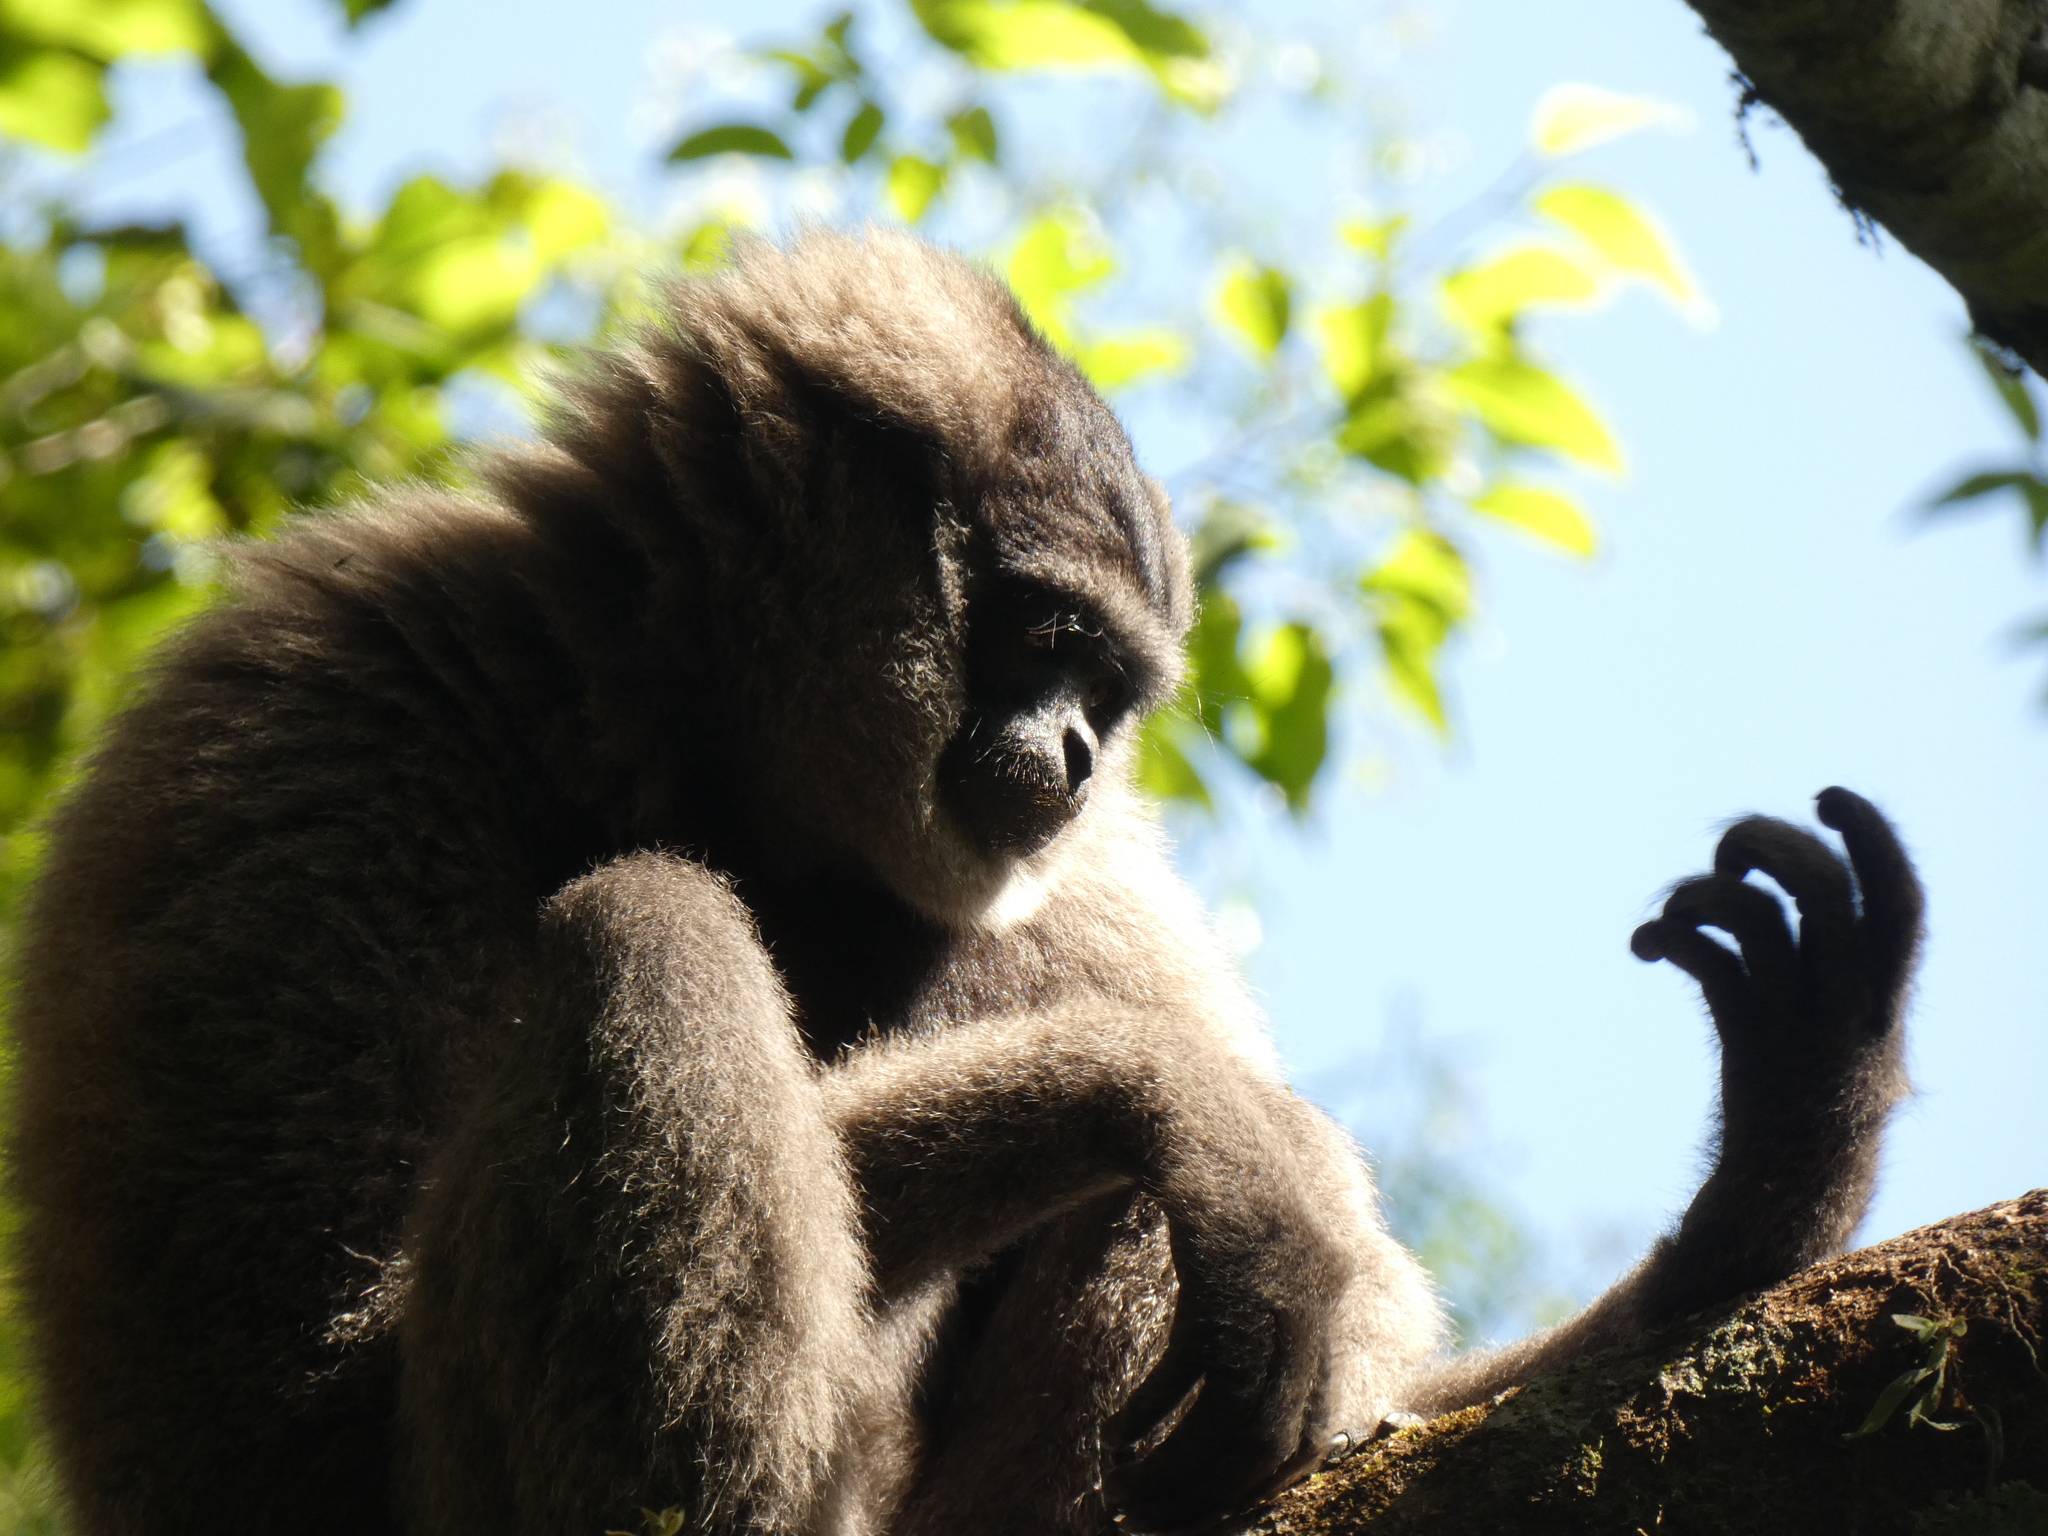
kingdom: Animalia
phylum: Chordata
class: Mammalia
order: Primates
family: Hylobatidae
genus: Hylobates
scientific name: Hylobates moloch
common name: Silvery javan gibbon
